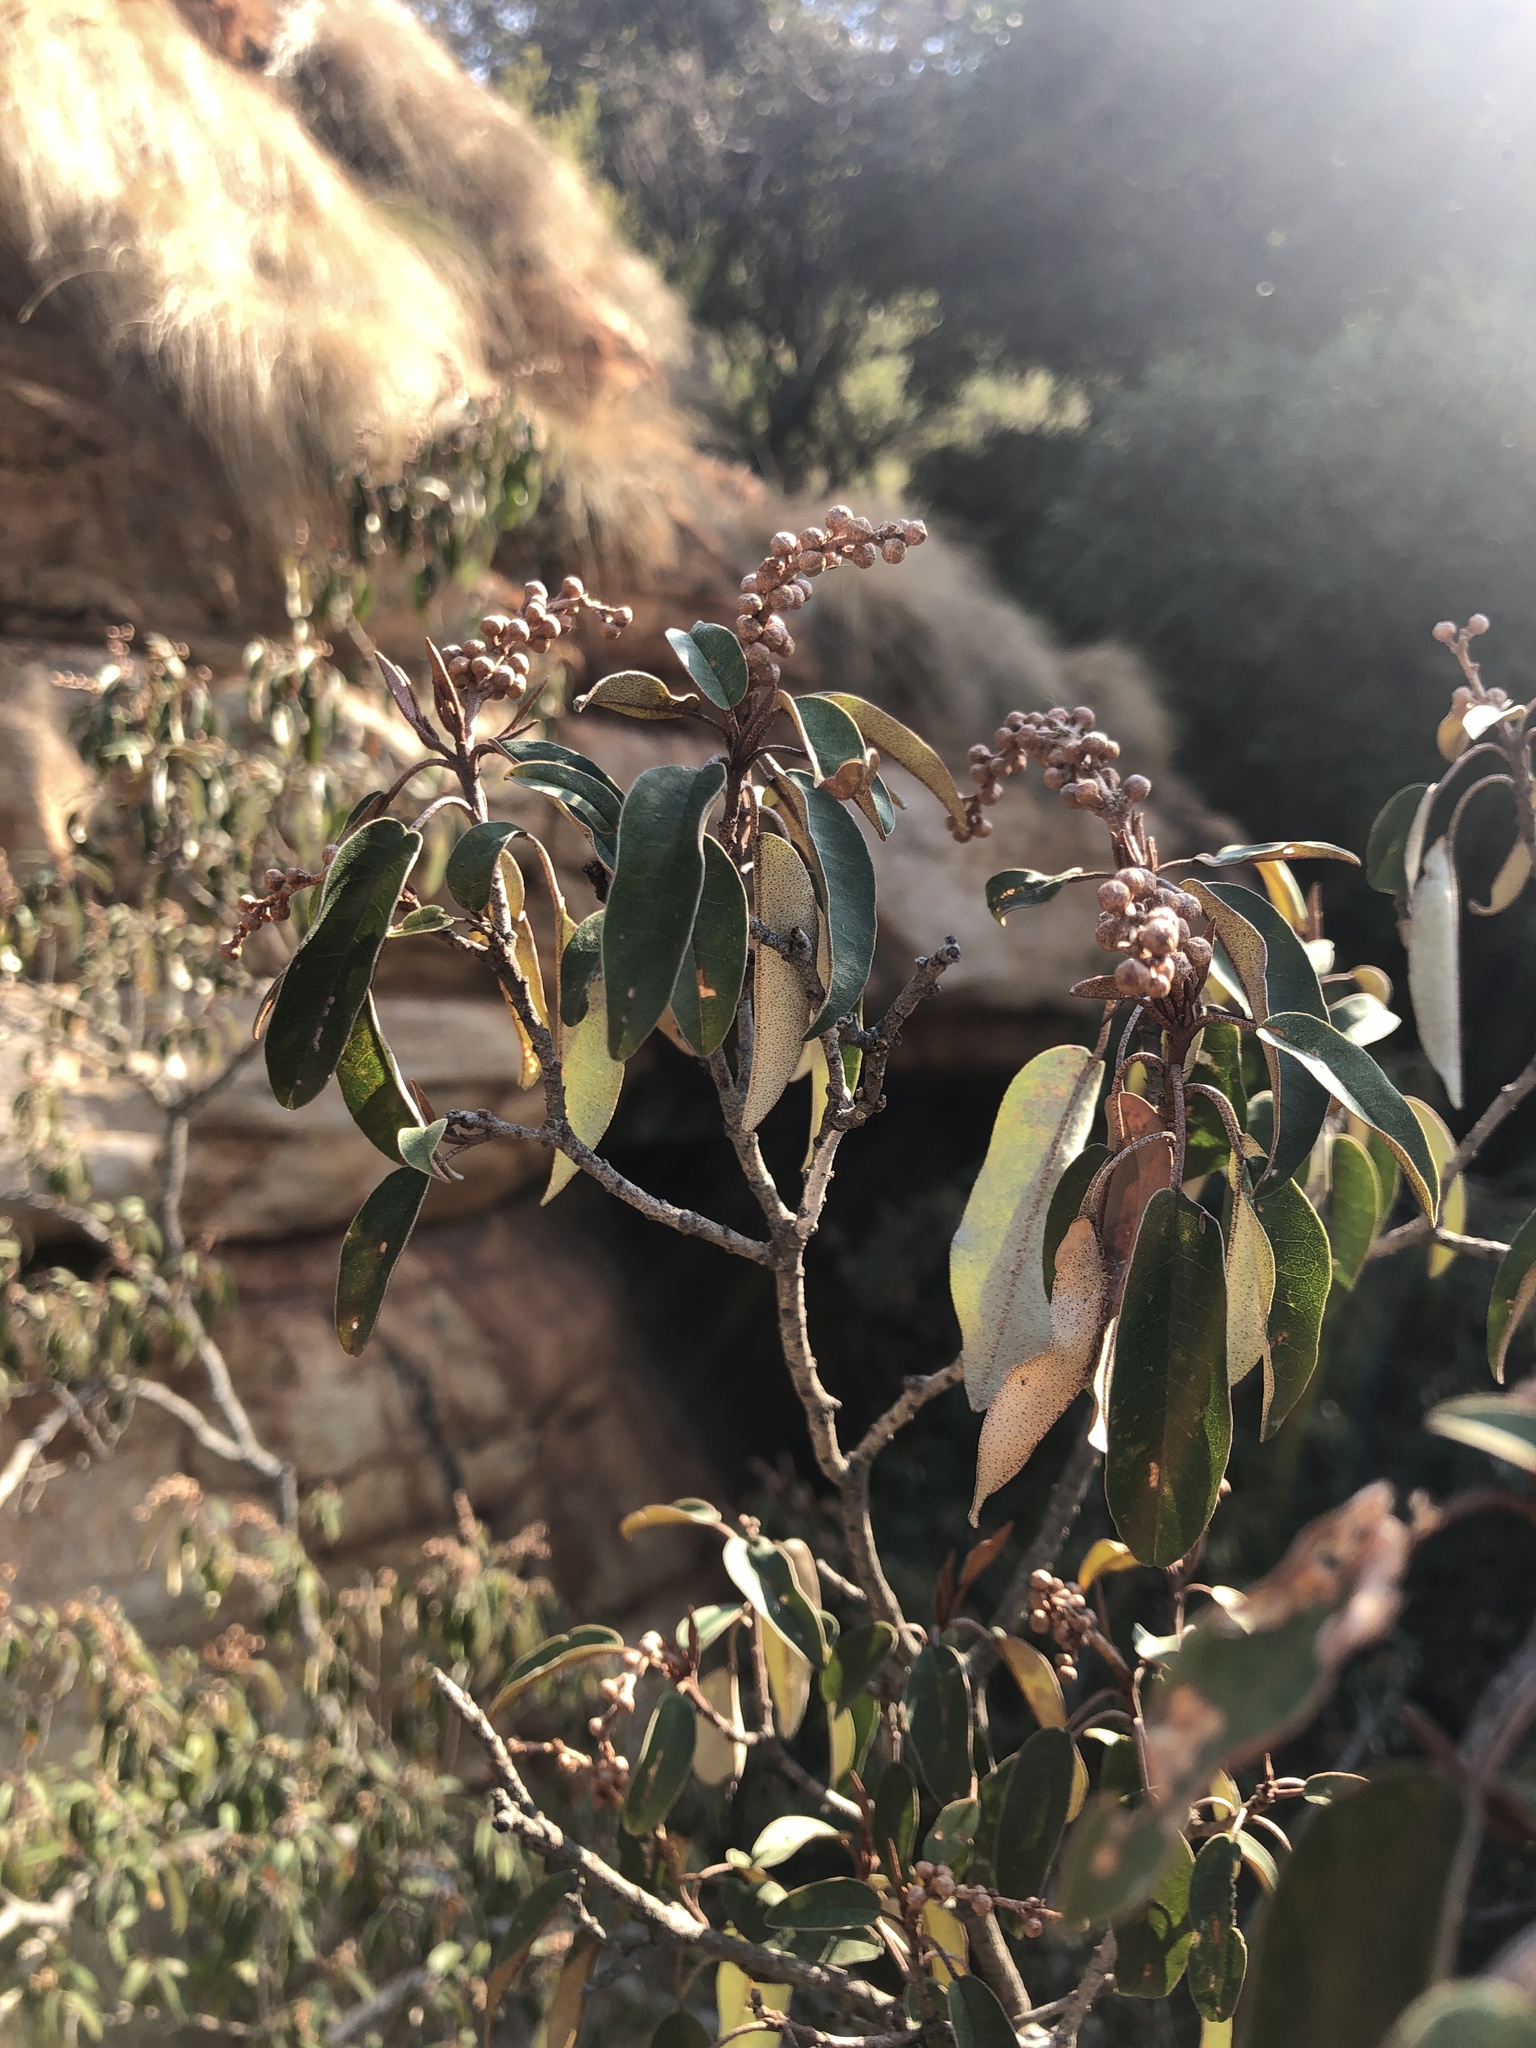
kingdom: Plantae
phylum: Tracheophyta
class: Magnoliopsida
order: Malpighiales
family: Euphorbiaceae
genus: Croton
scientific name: Croton gratissimus
